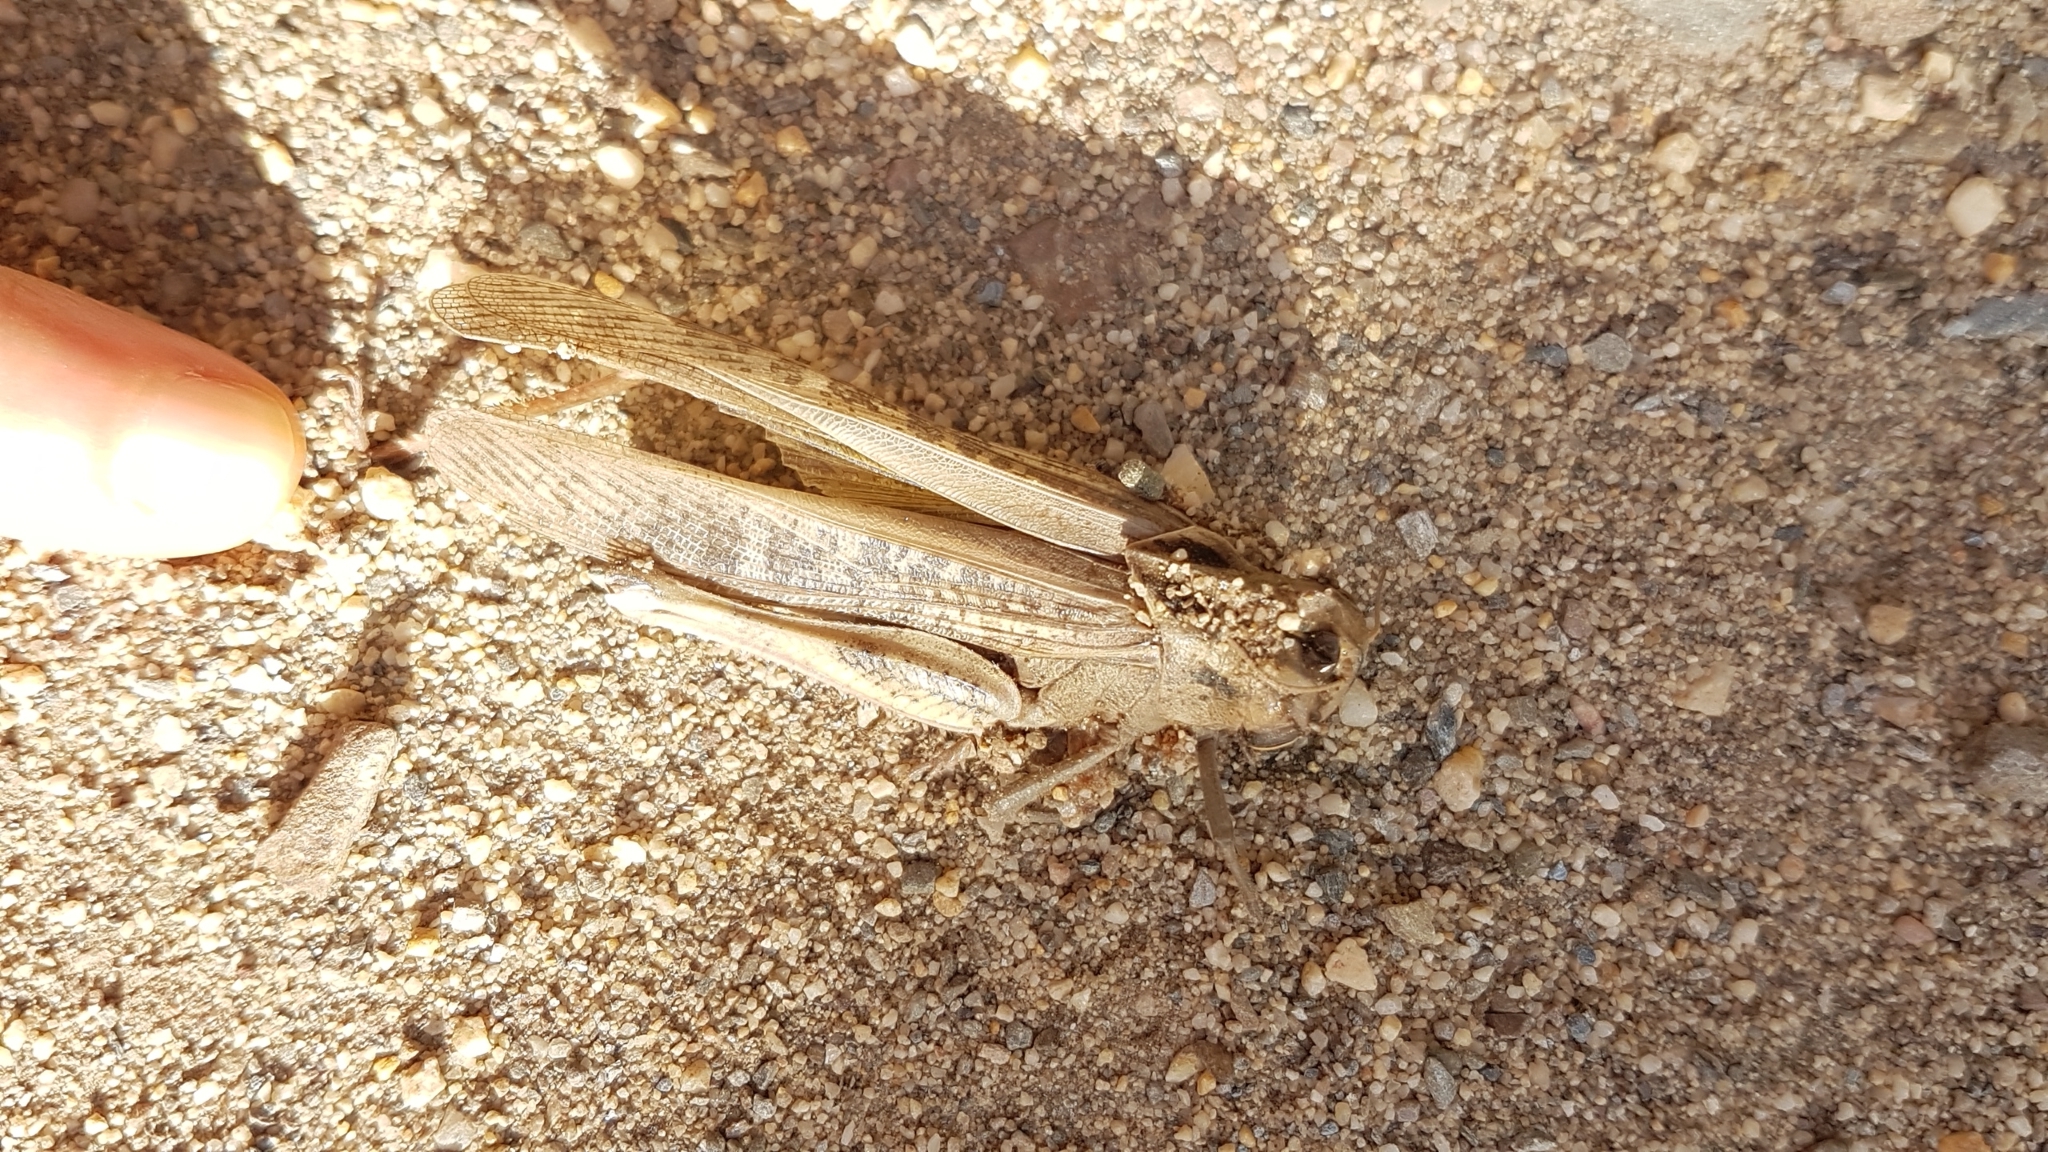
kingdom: Animalia
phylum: Arthropoda
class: Insecta
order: Orthoptera
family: Acrididae
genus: Locusta
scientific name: Locusta migratoria
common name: Migratory locust
